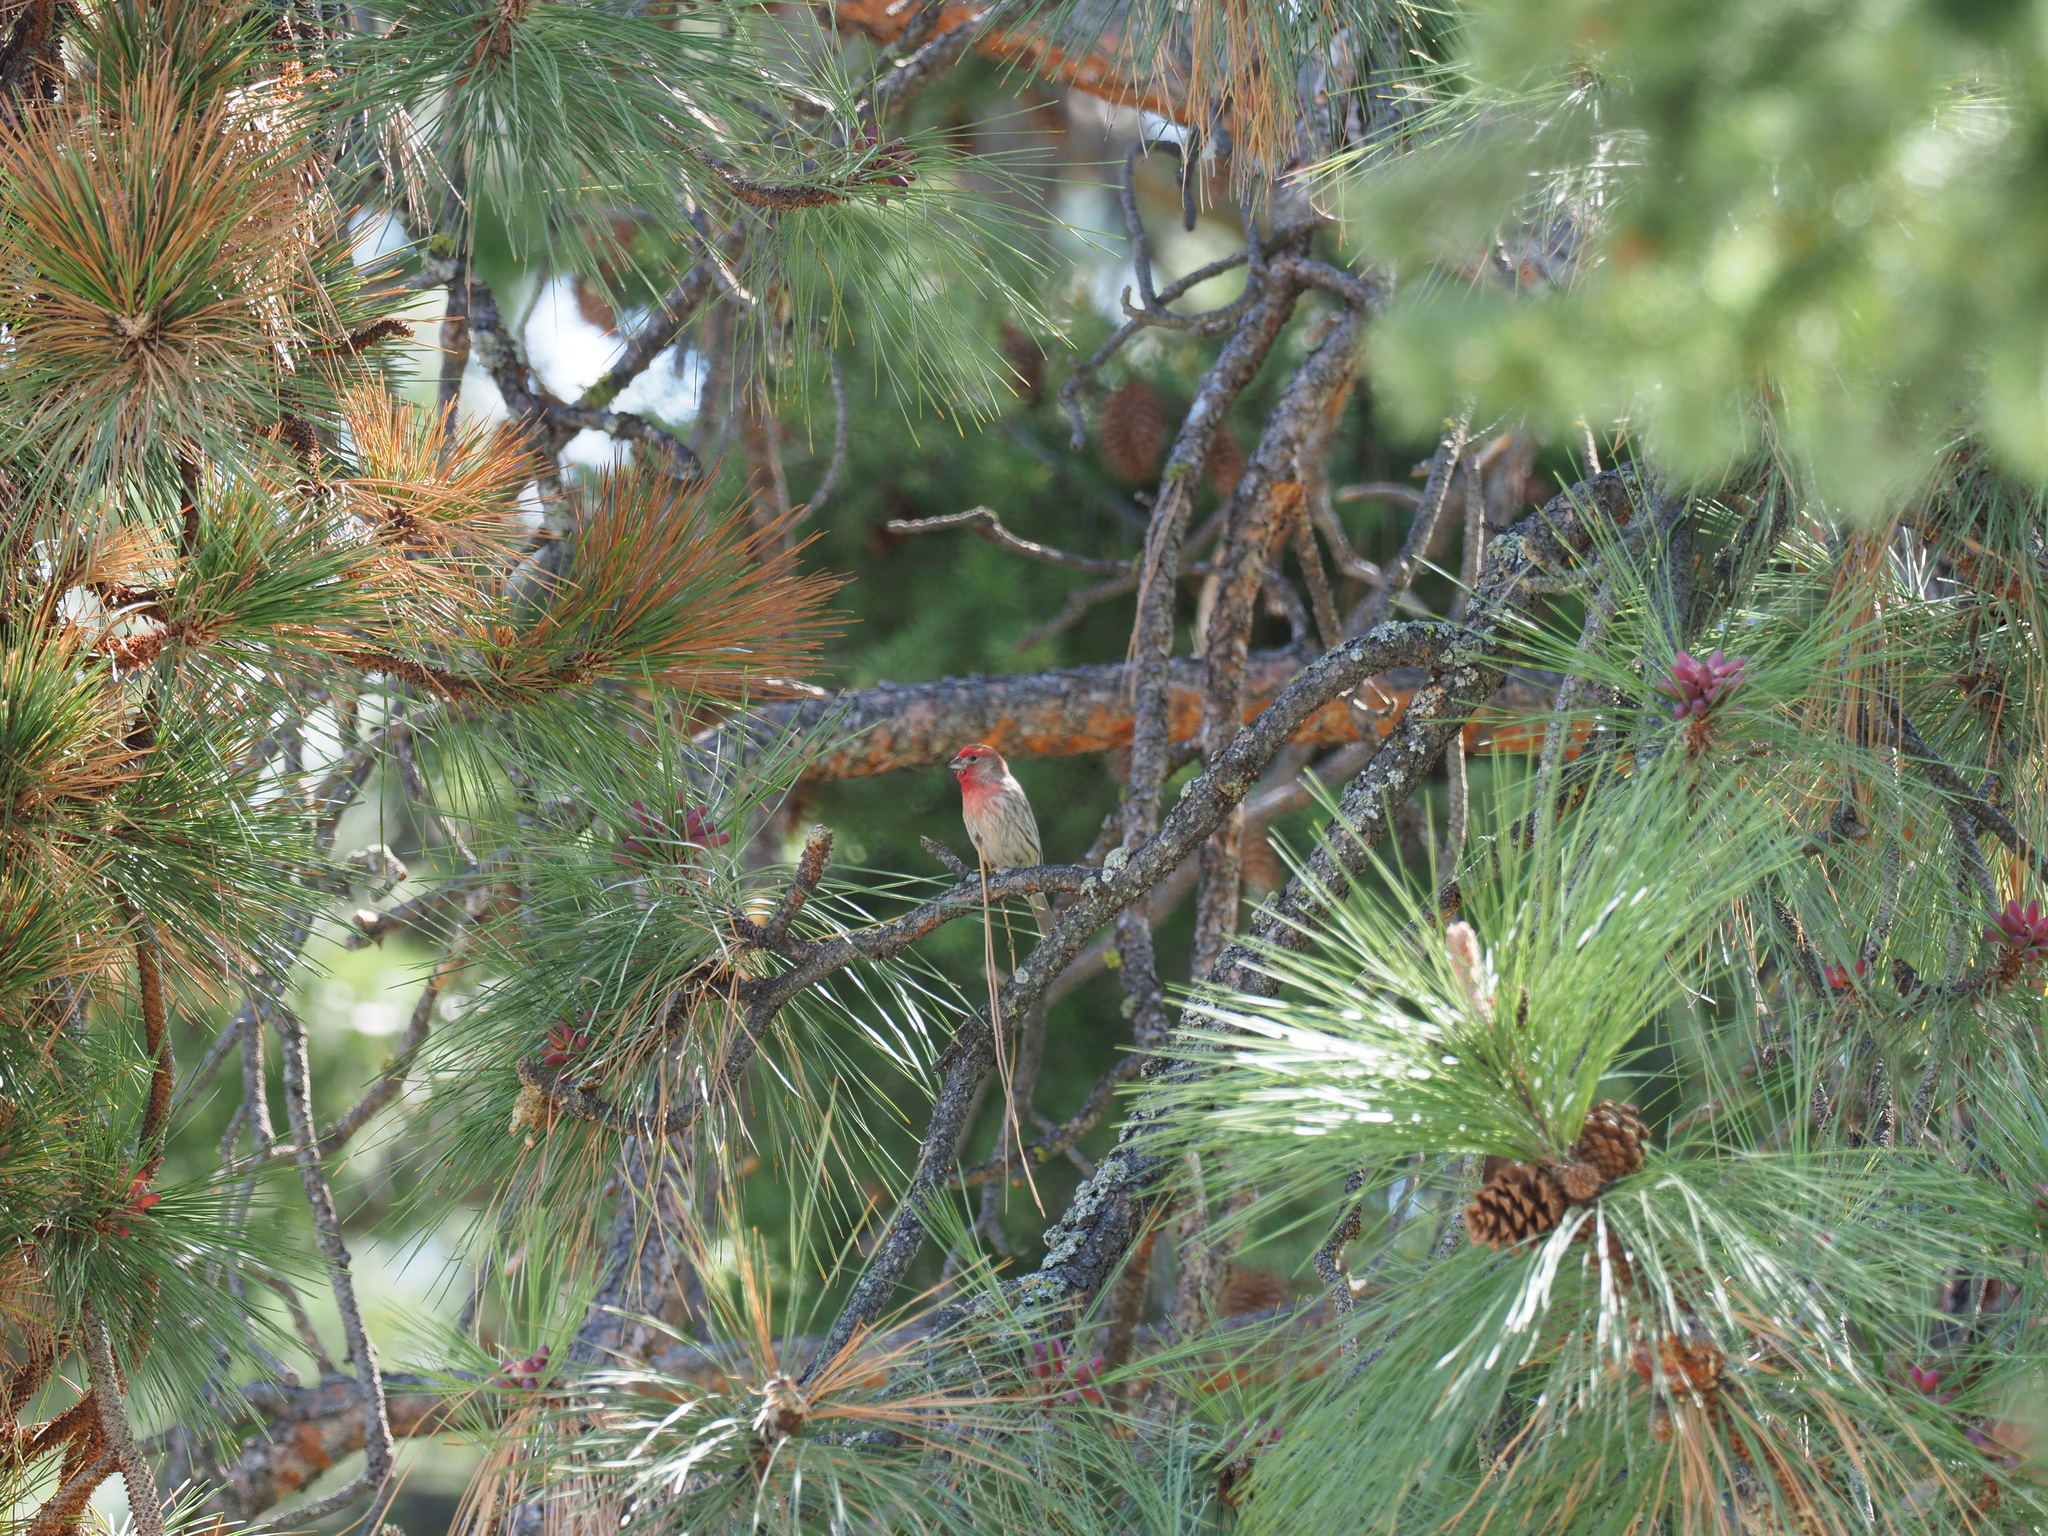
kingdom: Animalia
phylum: Chordata
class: Aves
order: Passeriformes
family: Fringillidae
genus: Haemorhous
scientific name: Haemorhous mexicanus
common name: House finch
